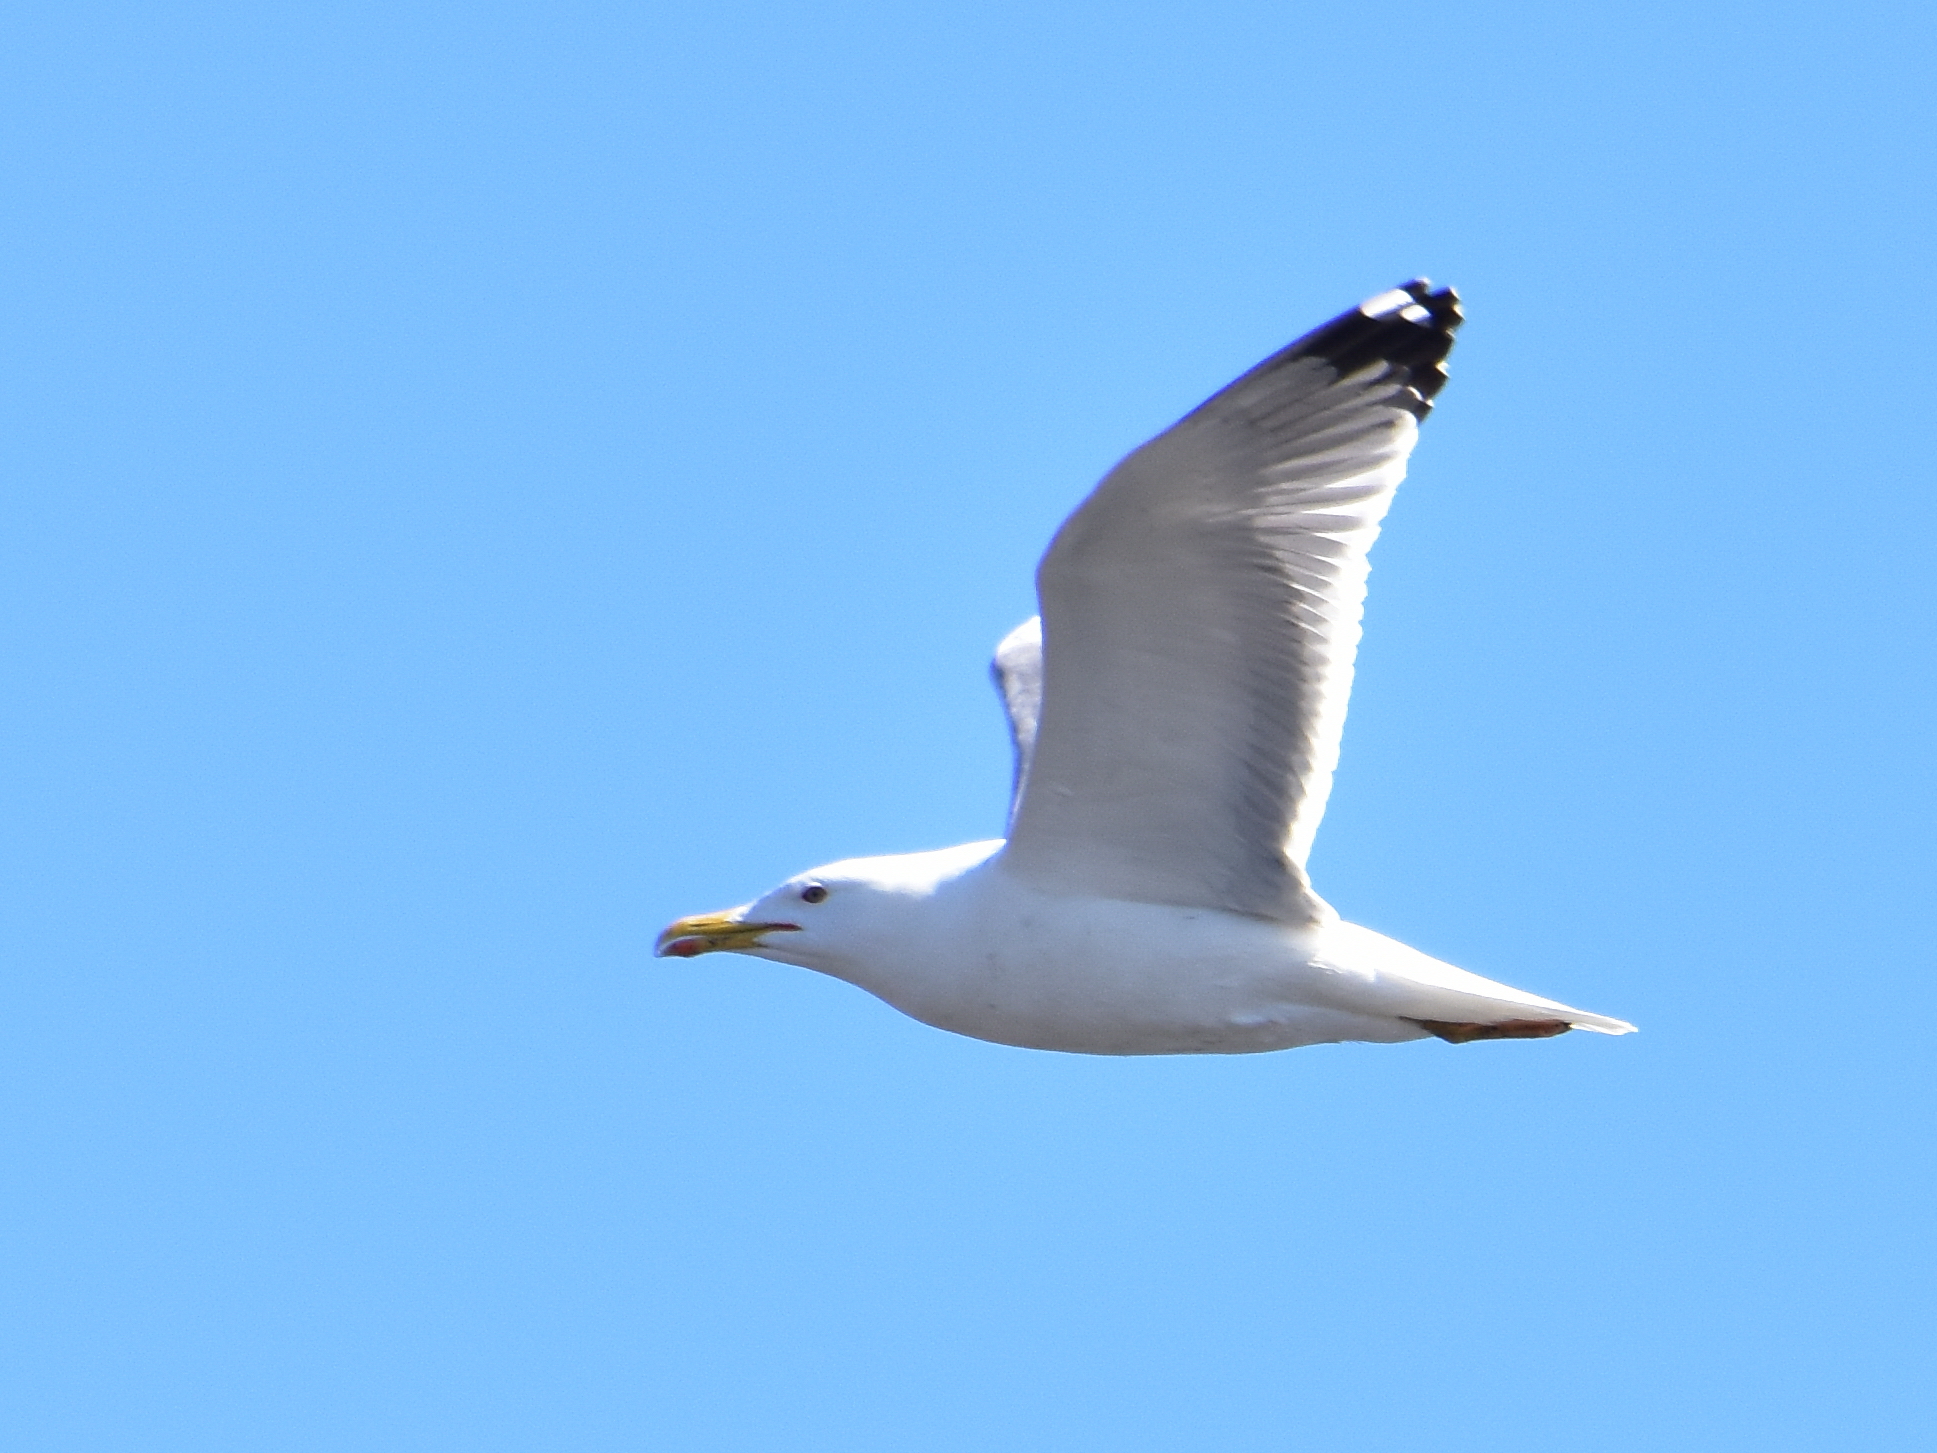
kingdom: Animalia
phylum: Chordata
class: Aves
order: Charadriiformes
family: Laridae
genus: Larus
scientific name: Larus fuscus
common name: Lesser black-backed gull
